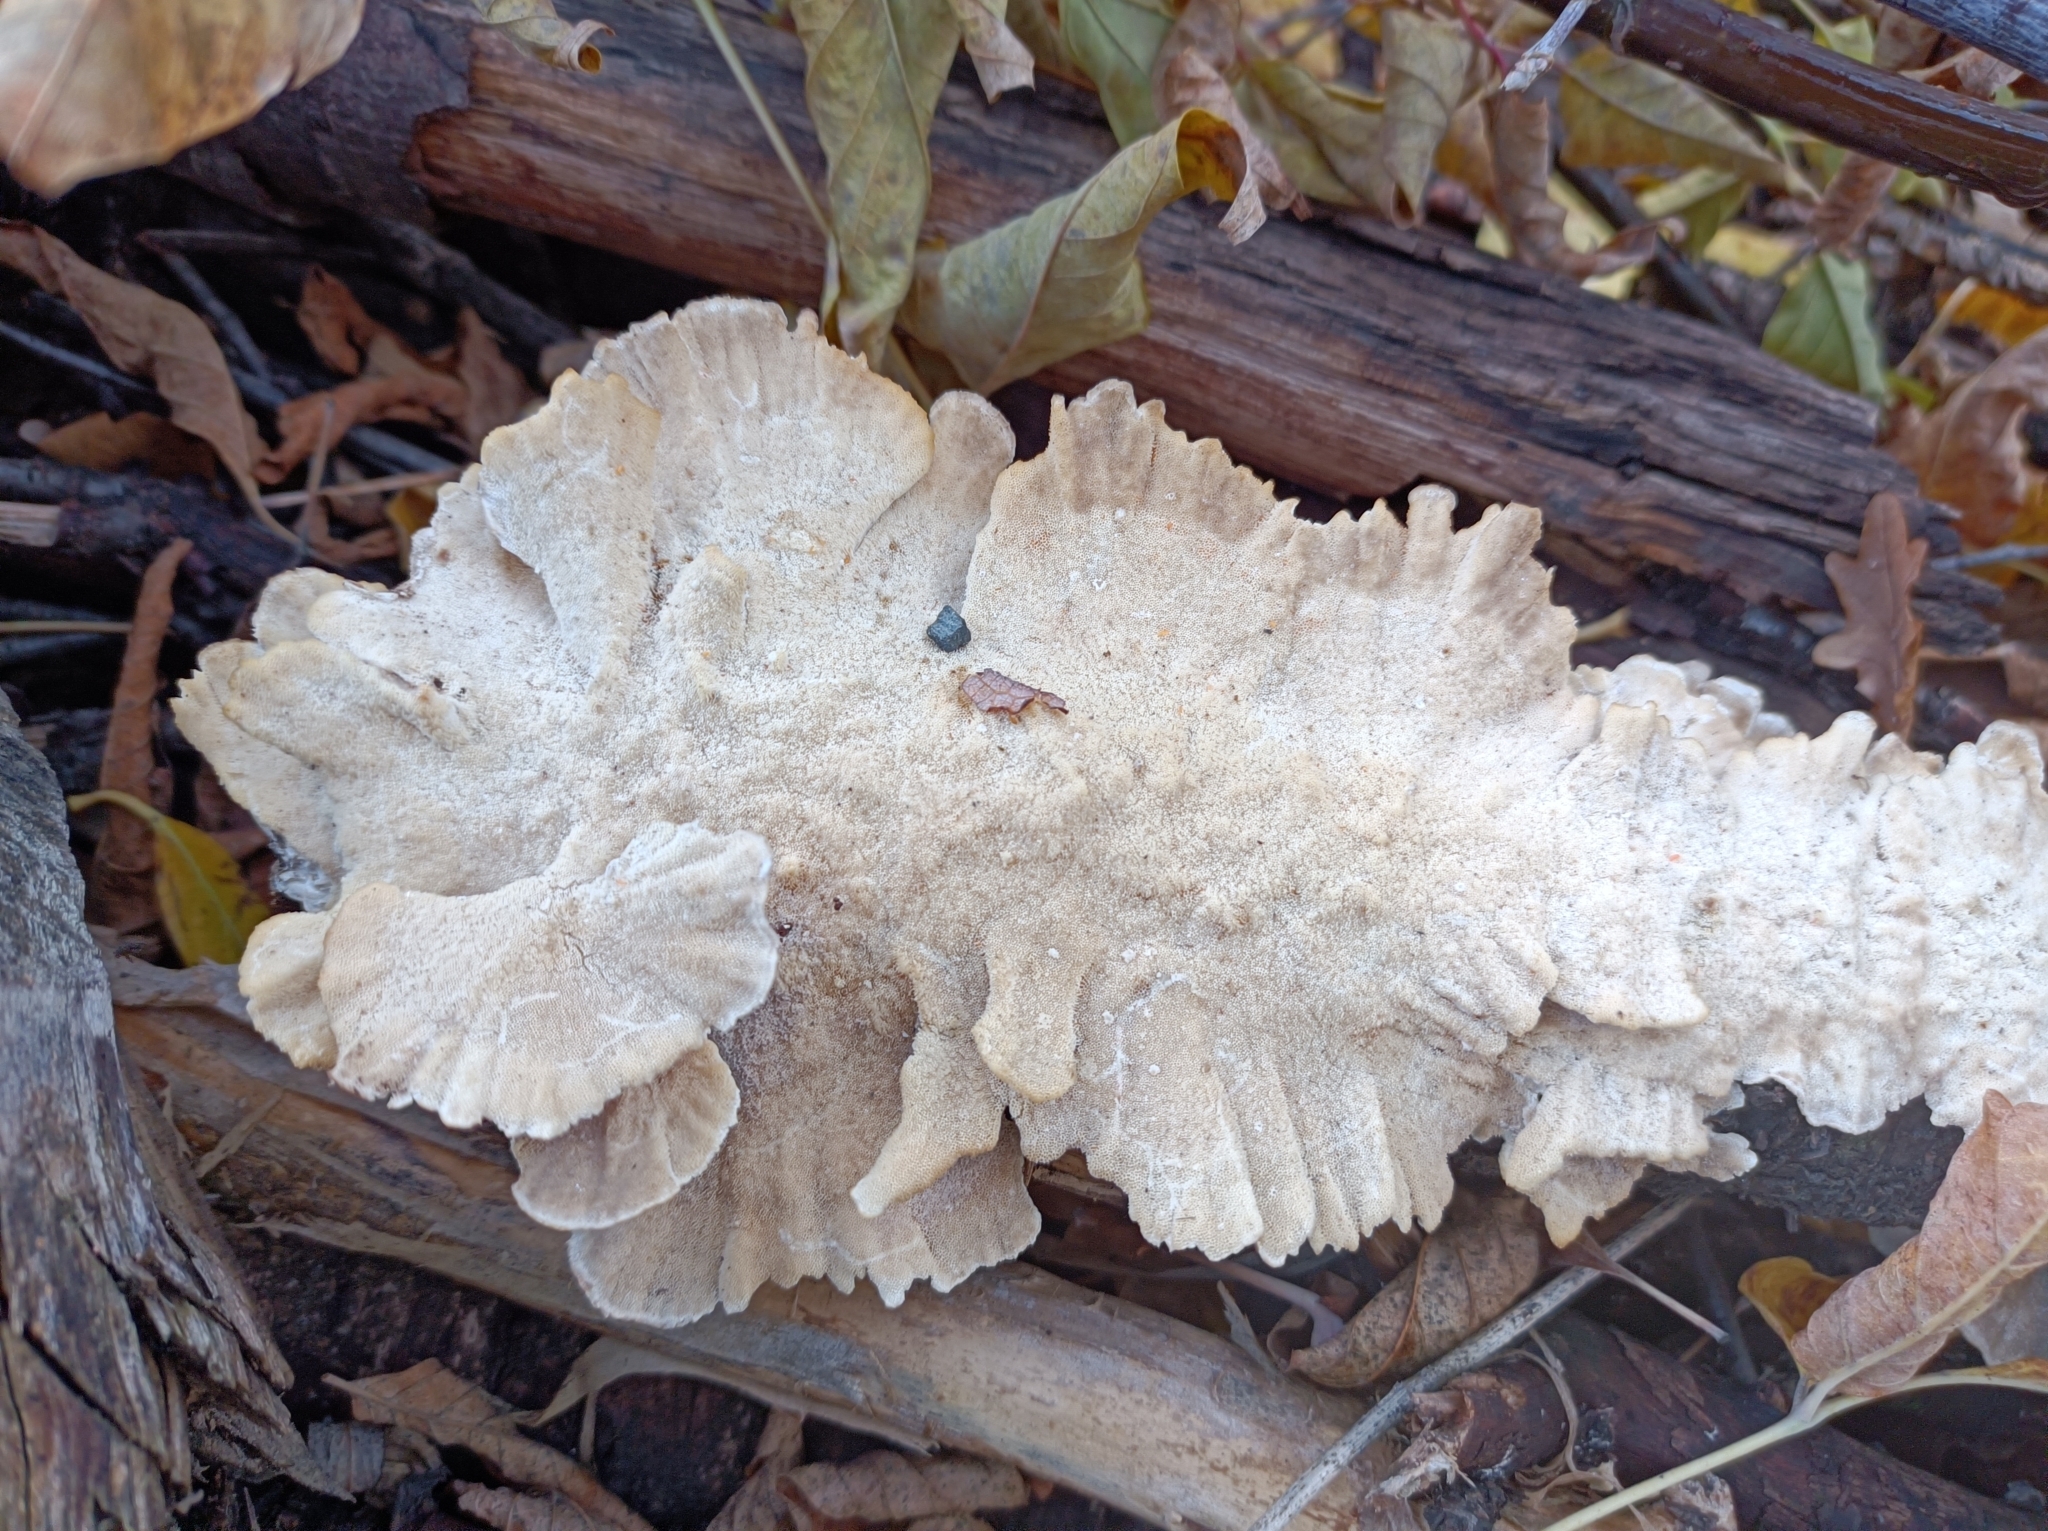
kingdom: Fungi
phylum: Basidiomycota
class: Agaricomycetes
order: Polyporales
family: Polyporaceae
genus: Trametes
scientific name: Trametes versicolor
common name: Turkeytail
